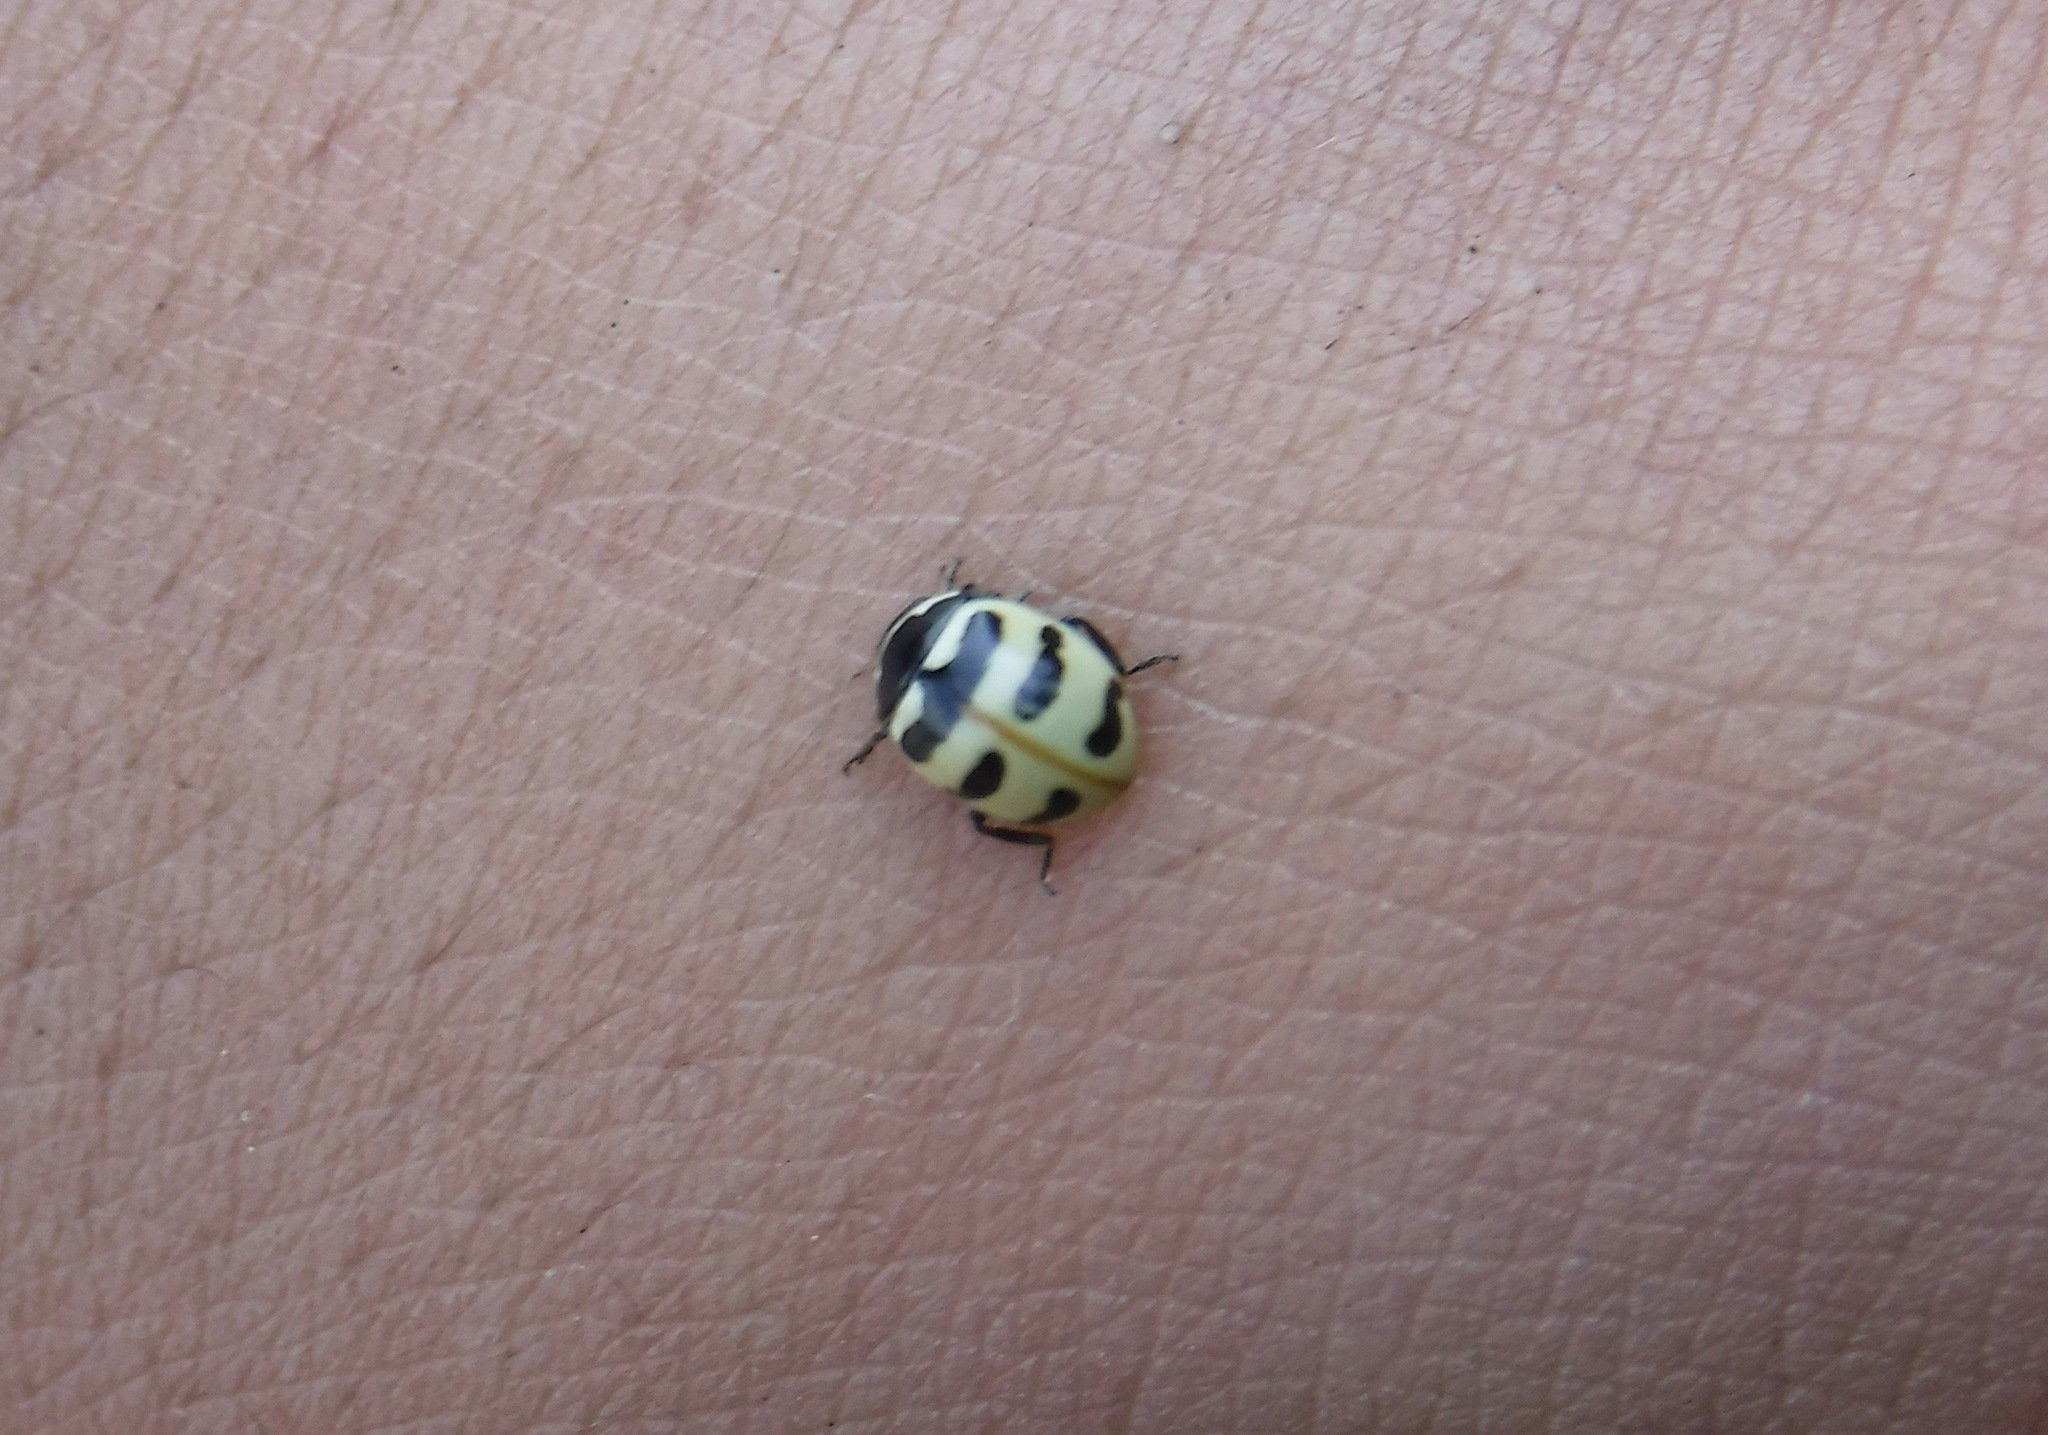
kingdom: Animalia
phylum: Arthropoda
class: Insecta
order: Coleoptera
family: Coccinellidae
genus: Coccinella
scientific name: Coccinella trifasciata
